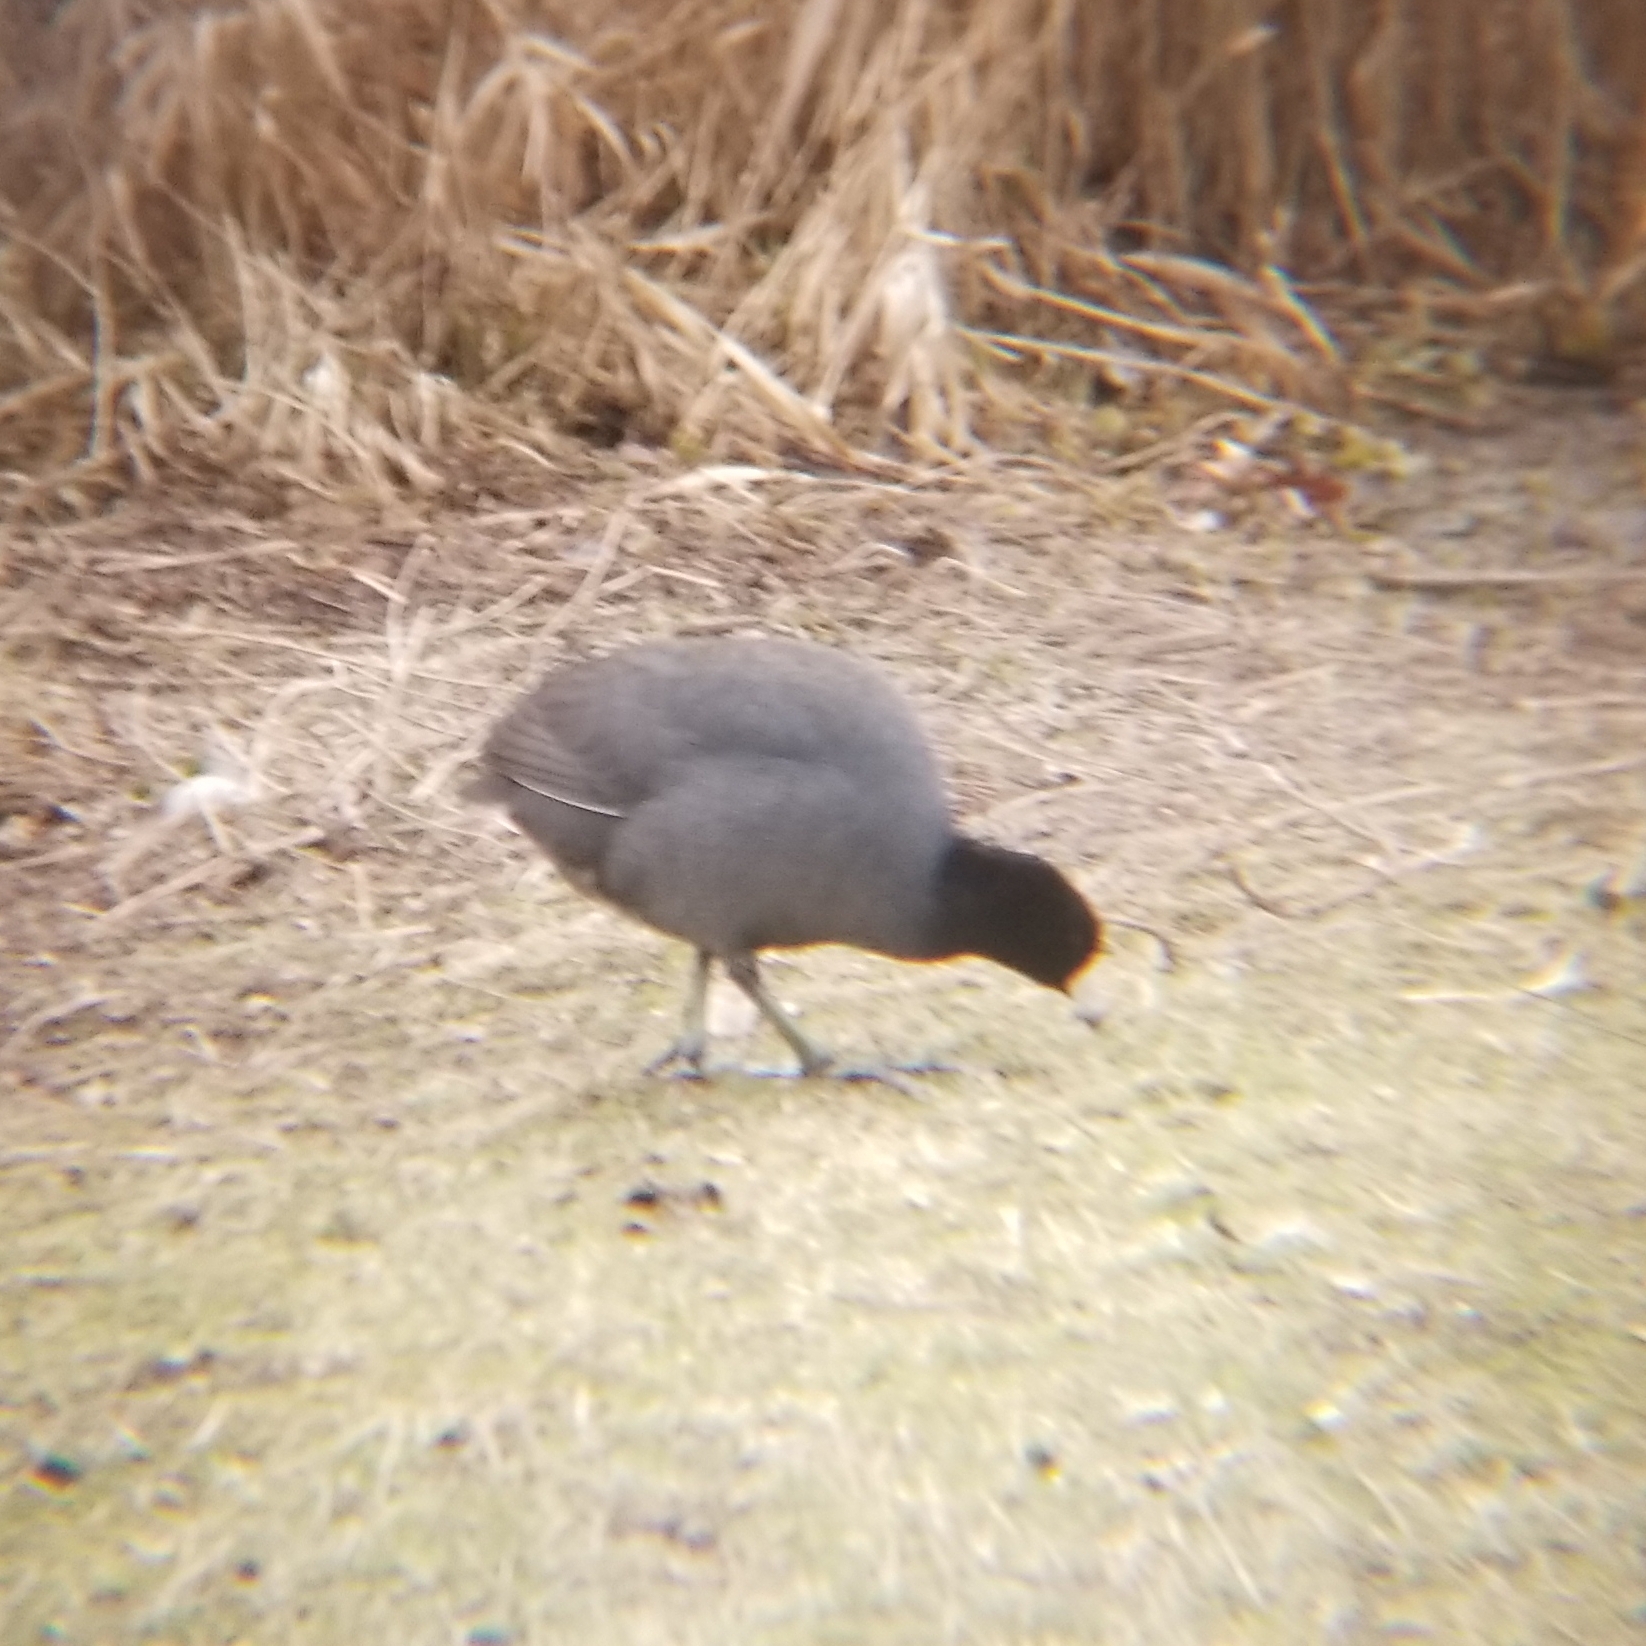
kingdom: Animalia
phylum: Chordata
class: Aves
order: Gruiformes
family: Rallidae
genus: Fulica
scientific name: Fulica americana
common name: American coot
